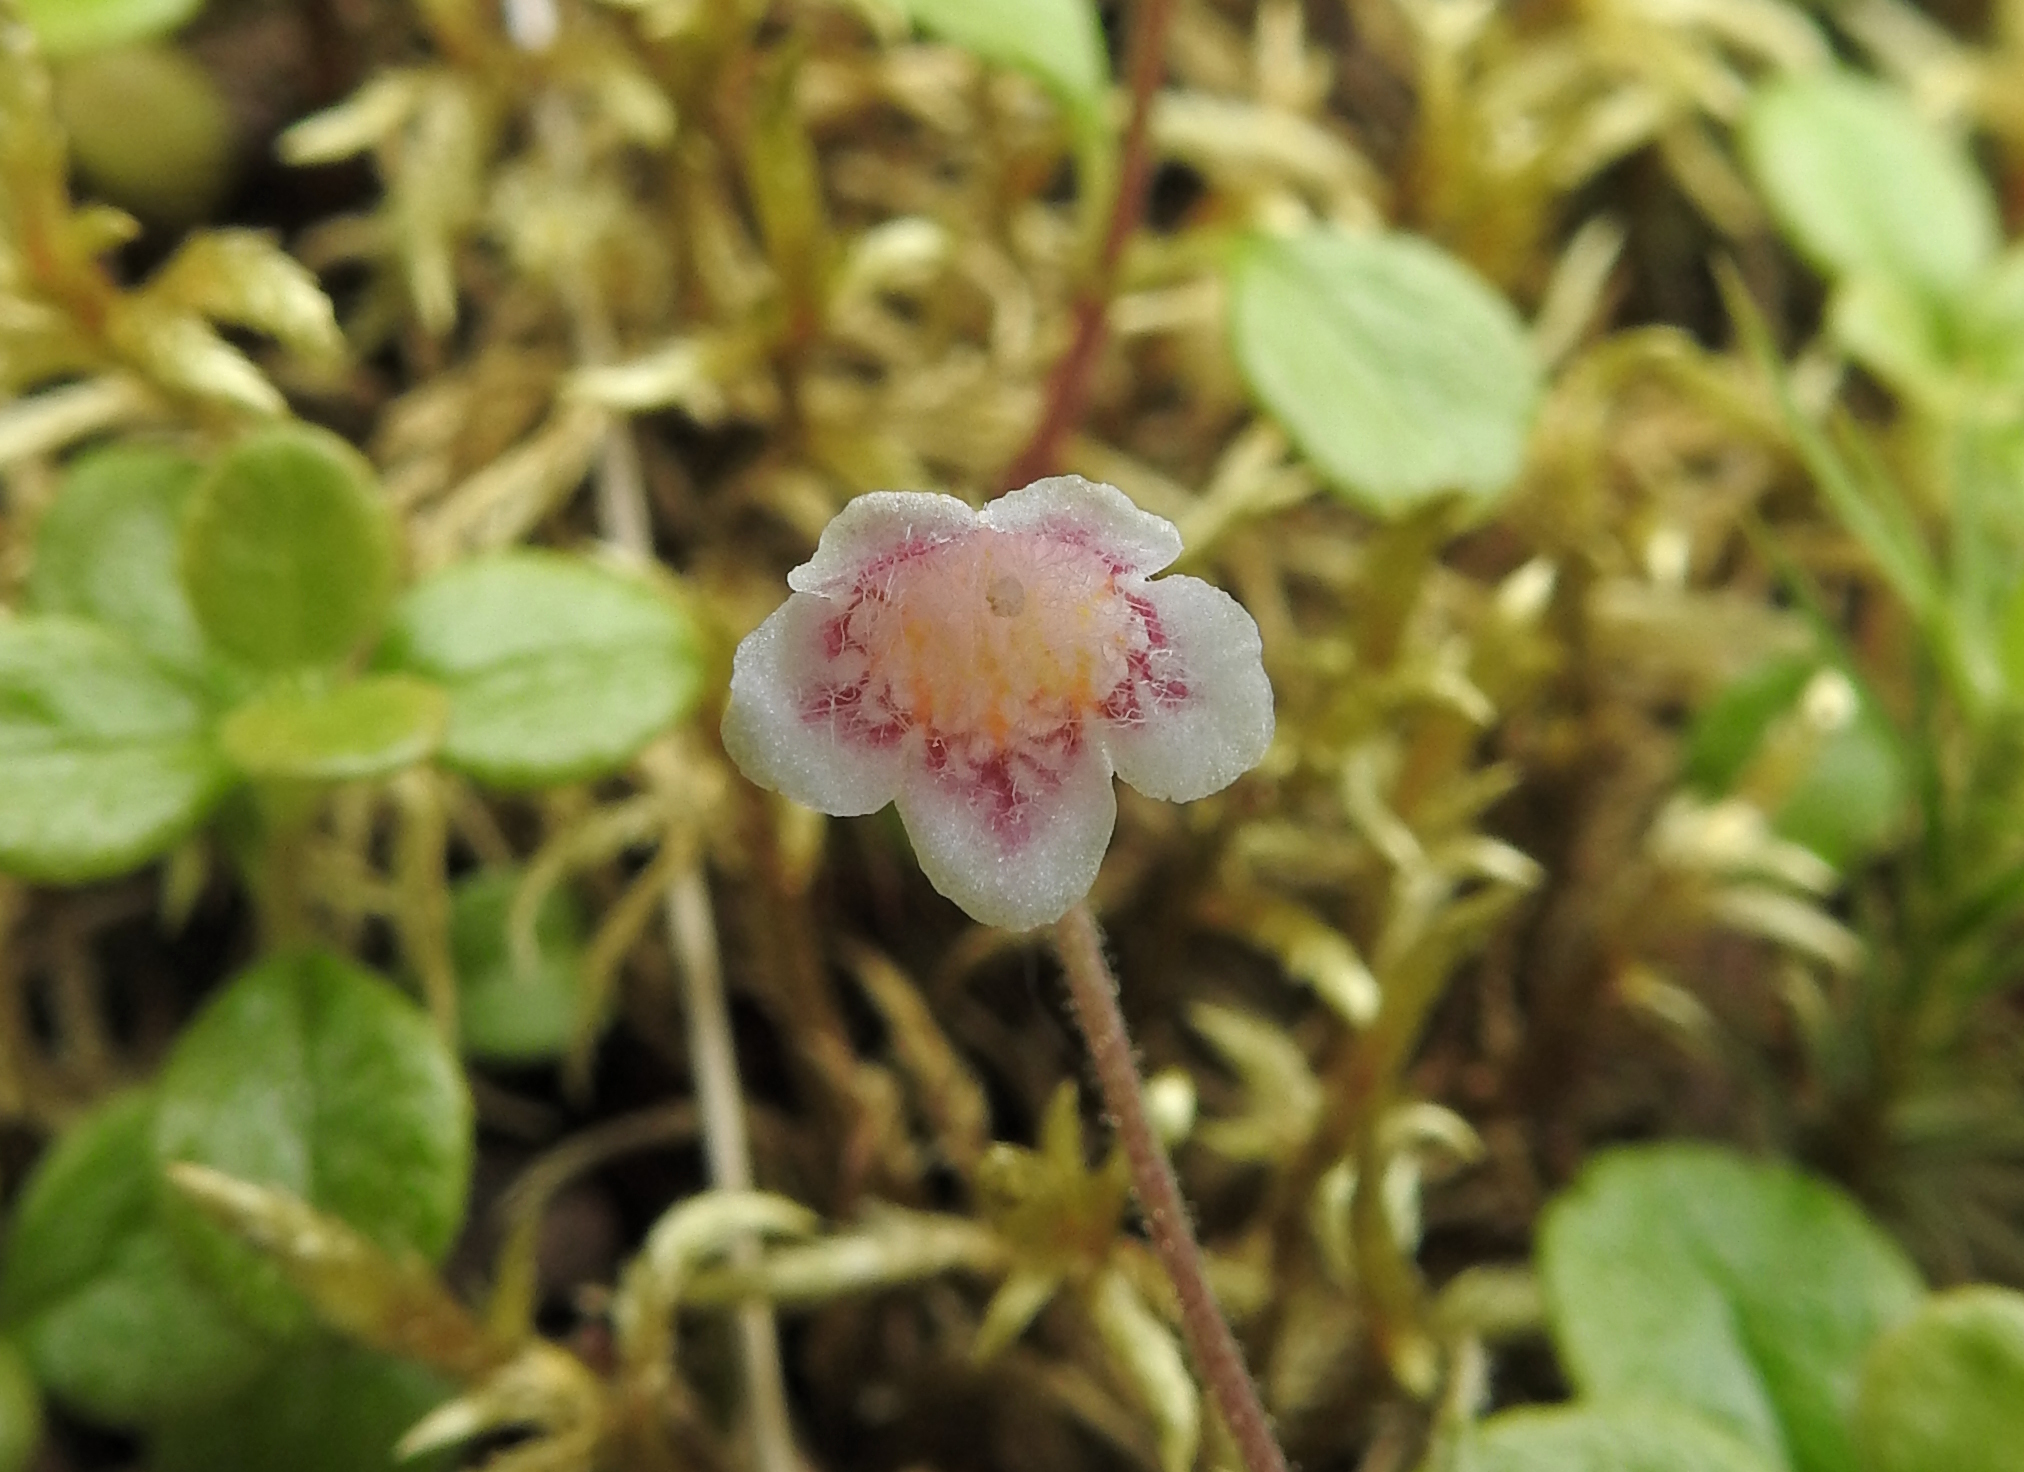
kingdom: Plantae
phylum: Tracheophyta
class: Magnoliopsida
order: Dipsacales
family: Caprifoliaceae
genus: Linnaea
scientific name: Linnaea borealis
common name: Twinflower
